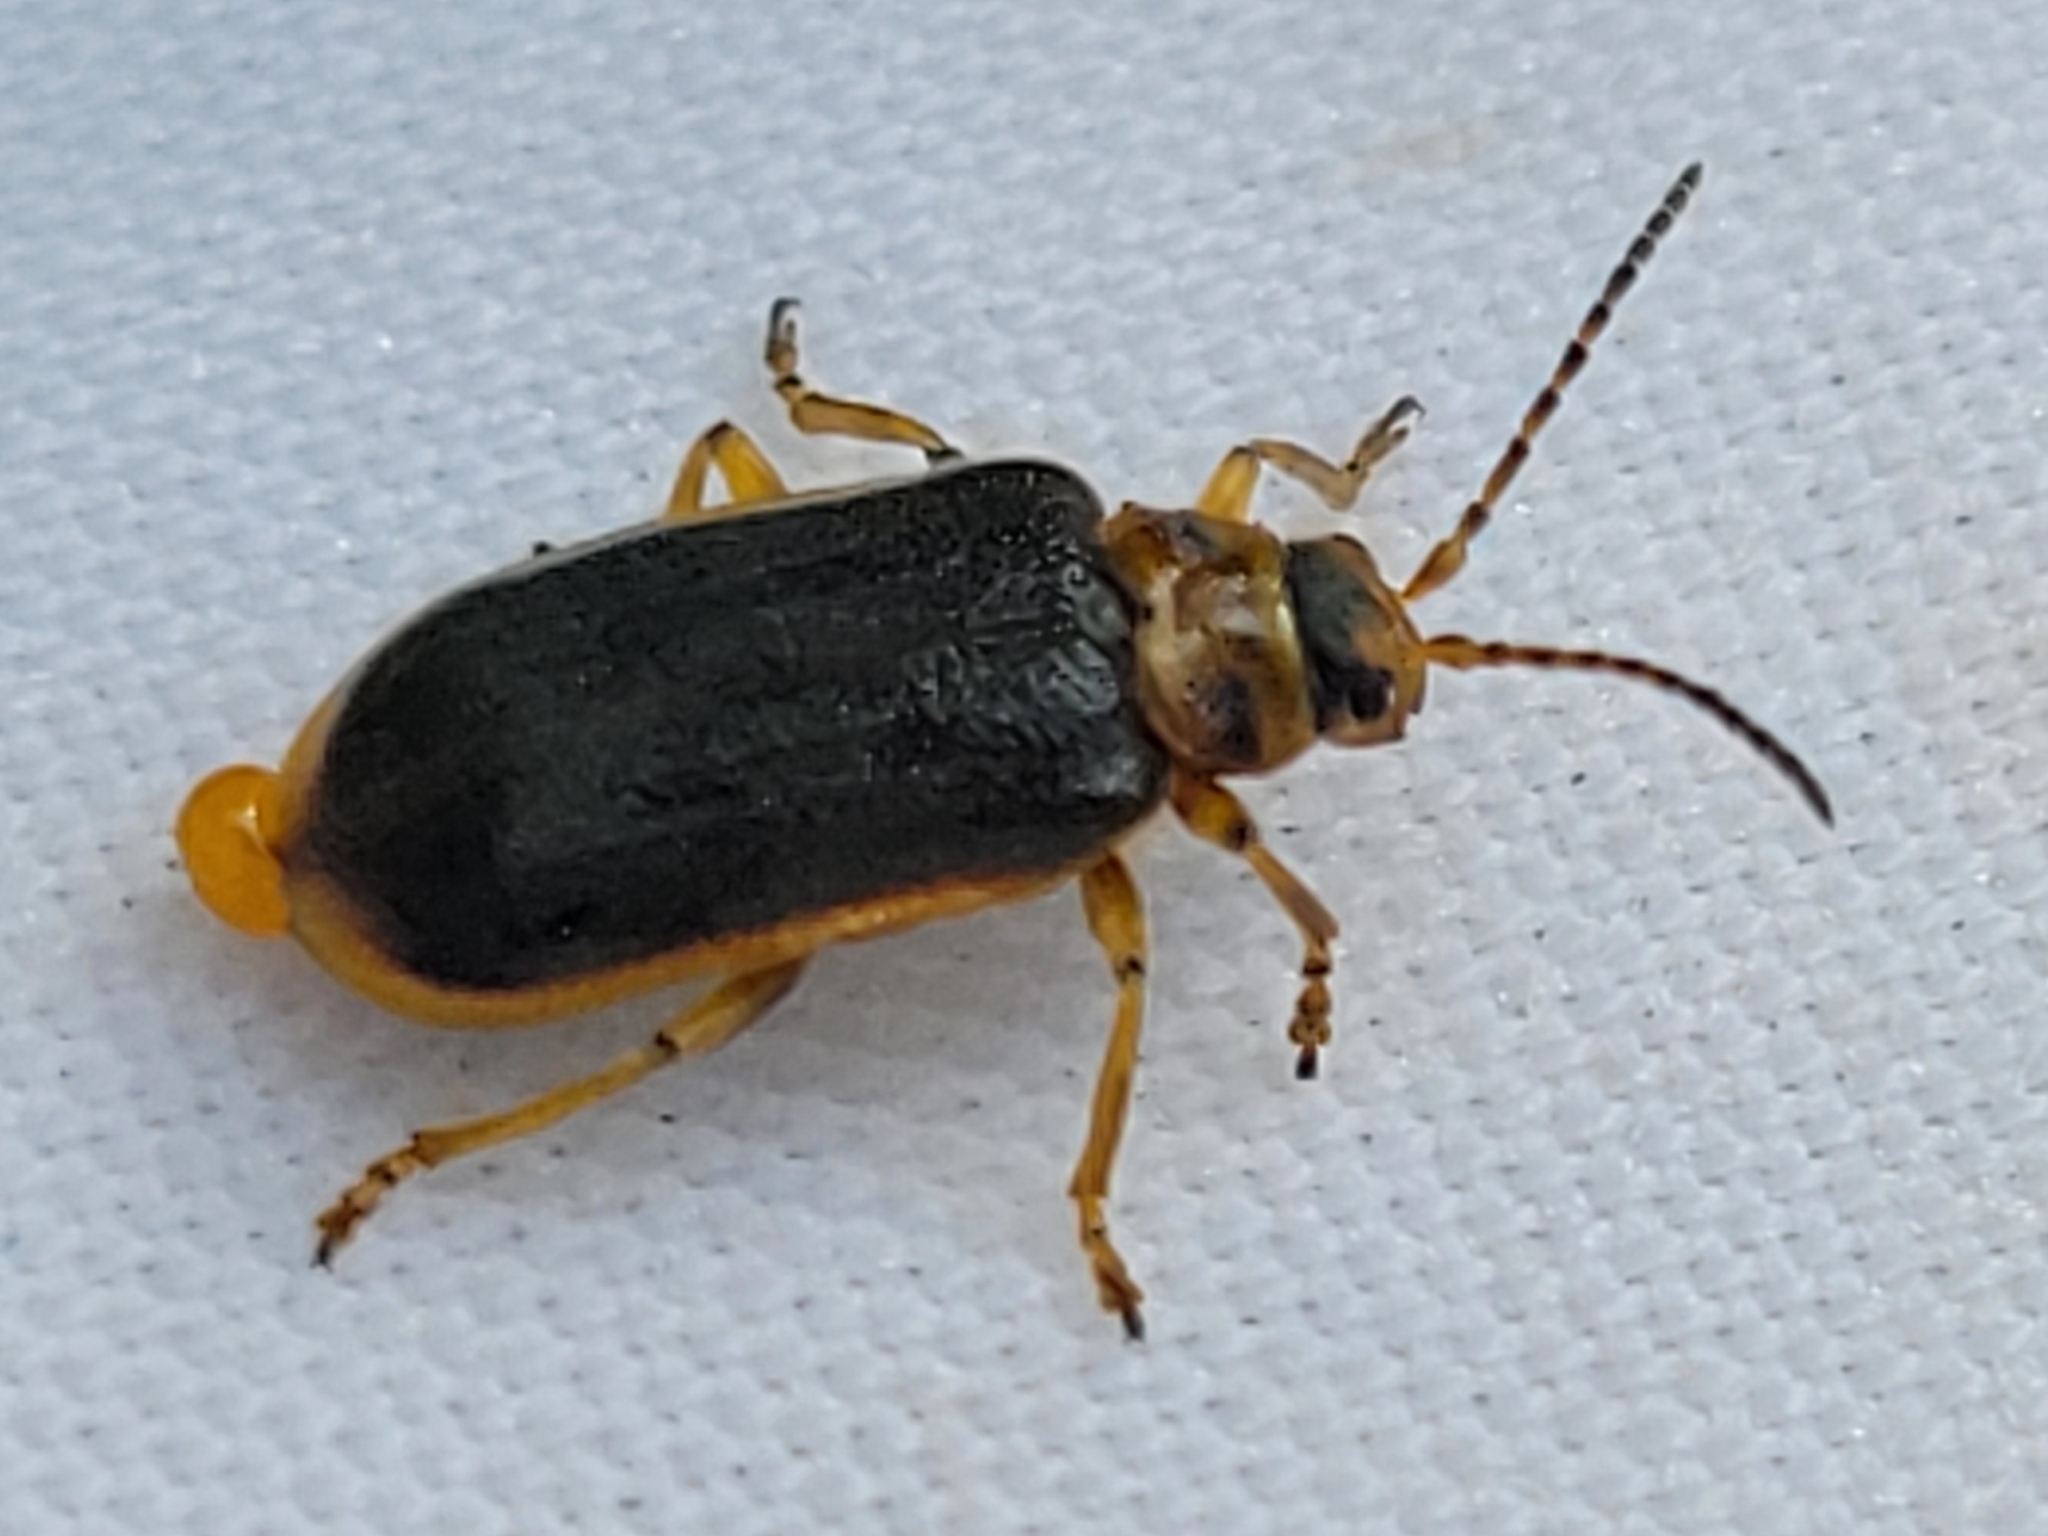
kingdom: Animalia
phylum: Arthropoda
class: Insecta
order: Coleoptera
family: Chrysomelidae
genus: Galerucella
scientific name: Galerucella nymphaeae
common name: Leaf beetle
